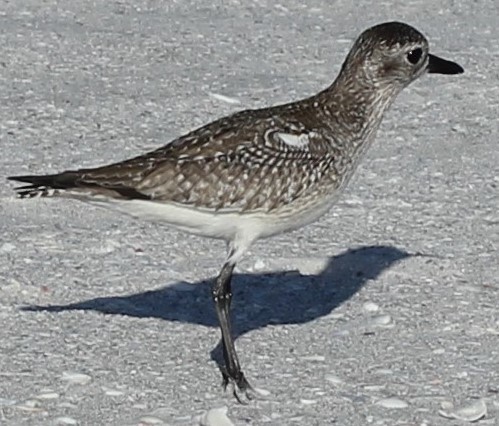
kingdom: Animalia
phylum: Chordata
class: Aves
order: Charadriiformes
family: Charadriidae
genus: Pluvialis
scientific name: Pluvialis squatarola
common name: Grey plover
